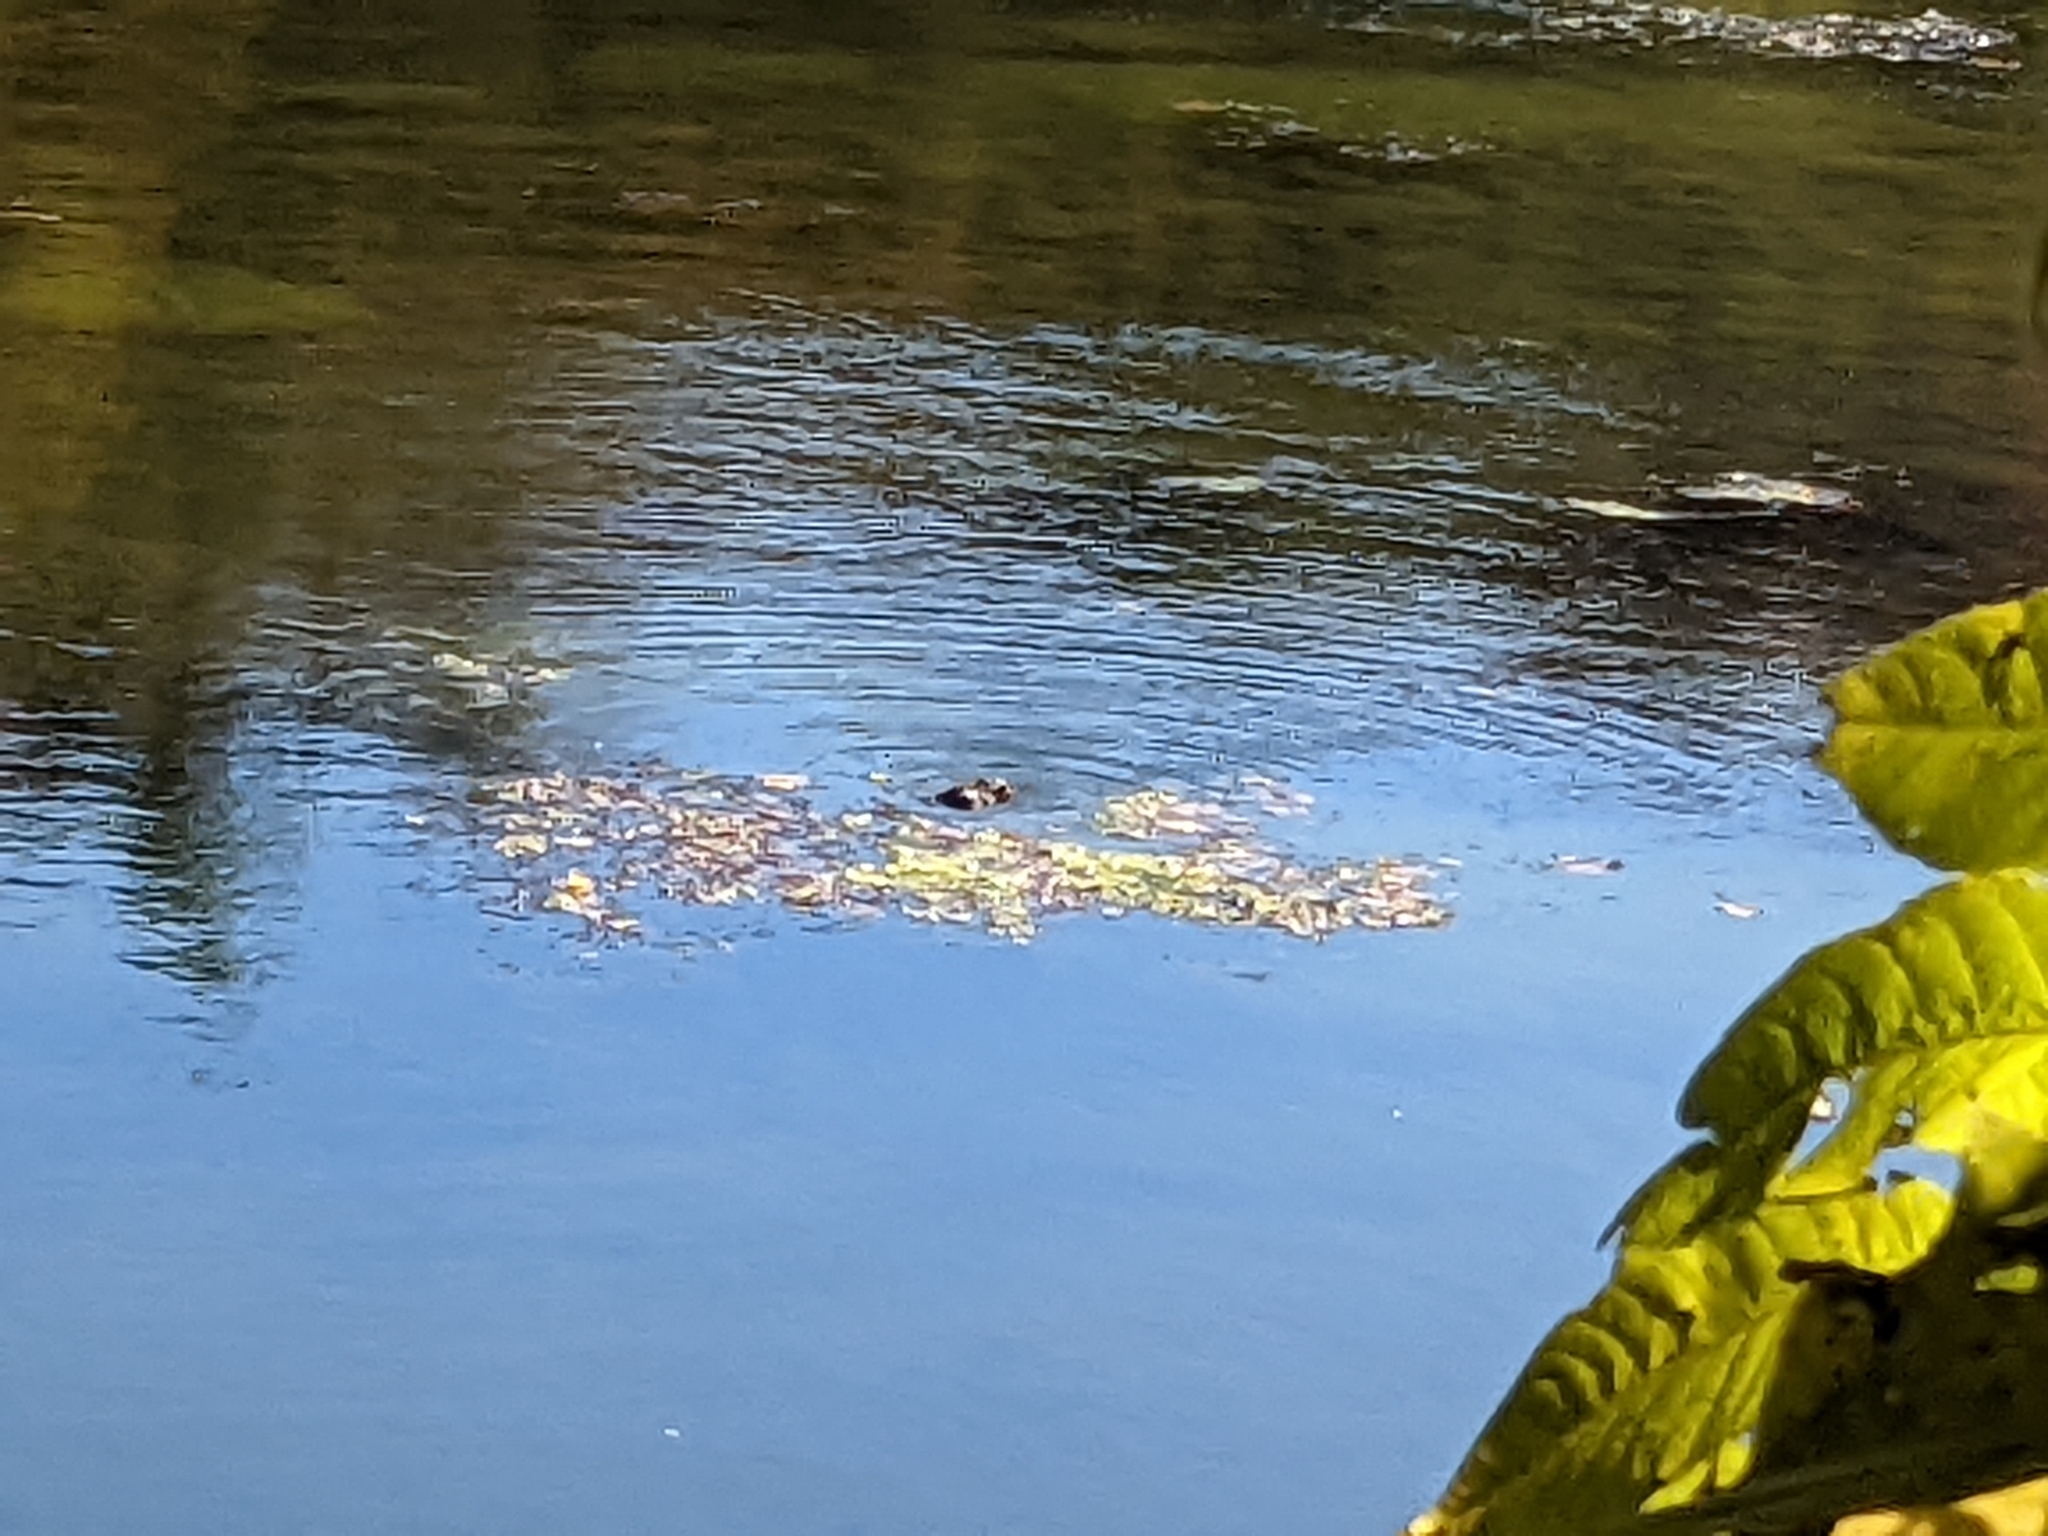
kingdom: Animalia
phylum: Chordata
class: Mammalia
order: Carnivora
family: Mustelidae
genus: Lontra
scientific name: Lontra canadensis
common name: North american river otter
